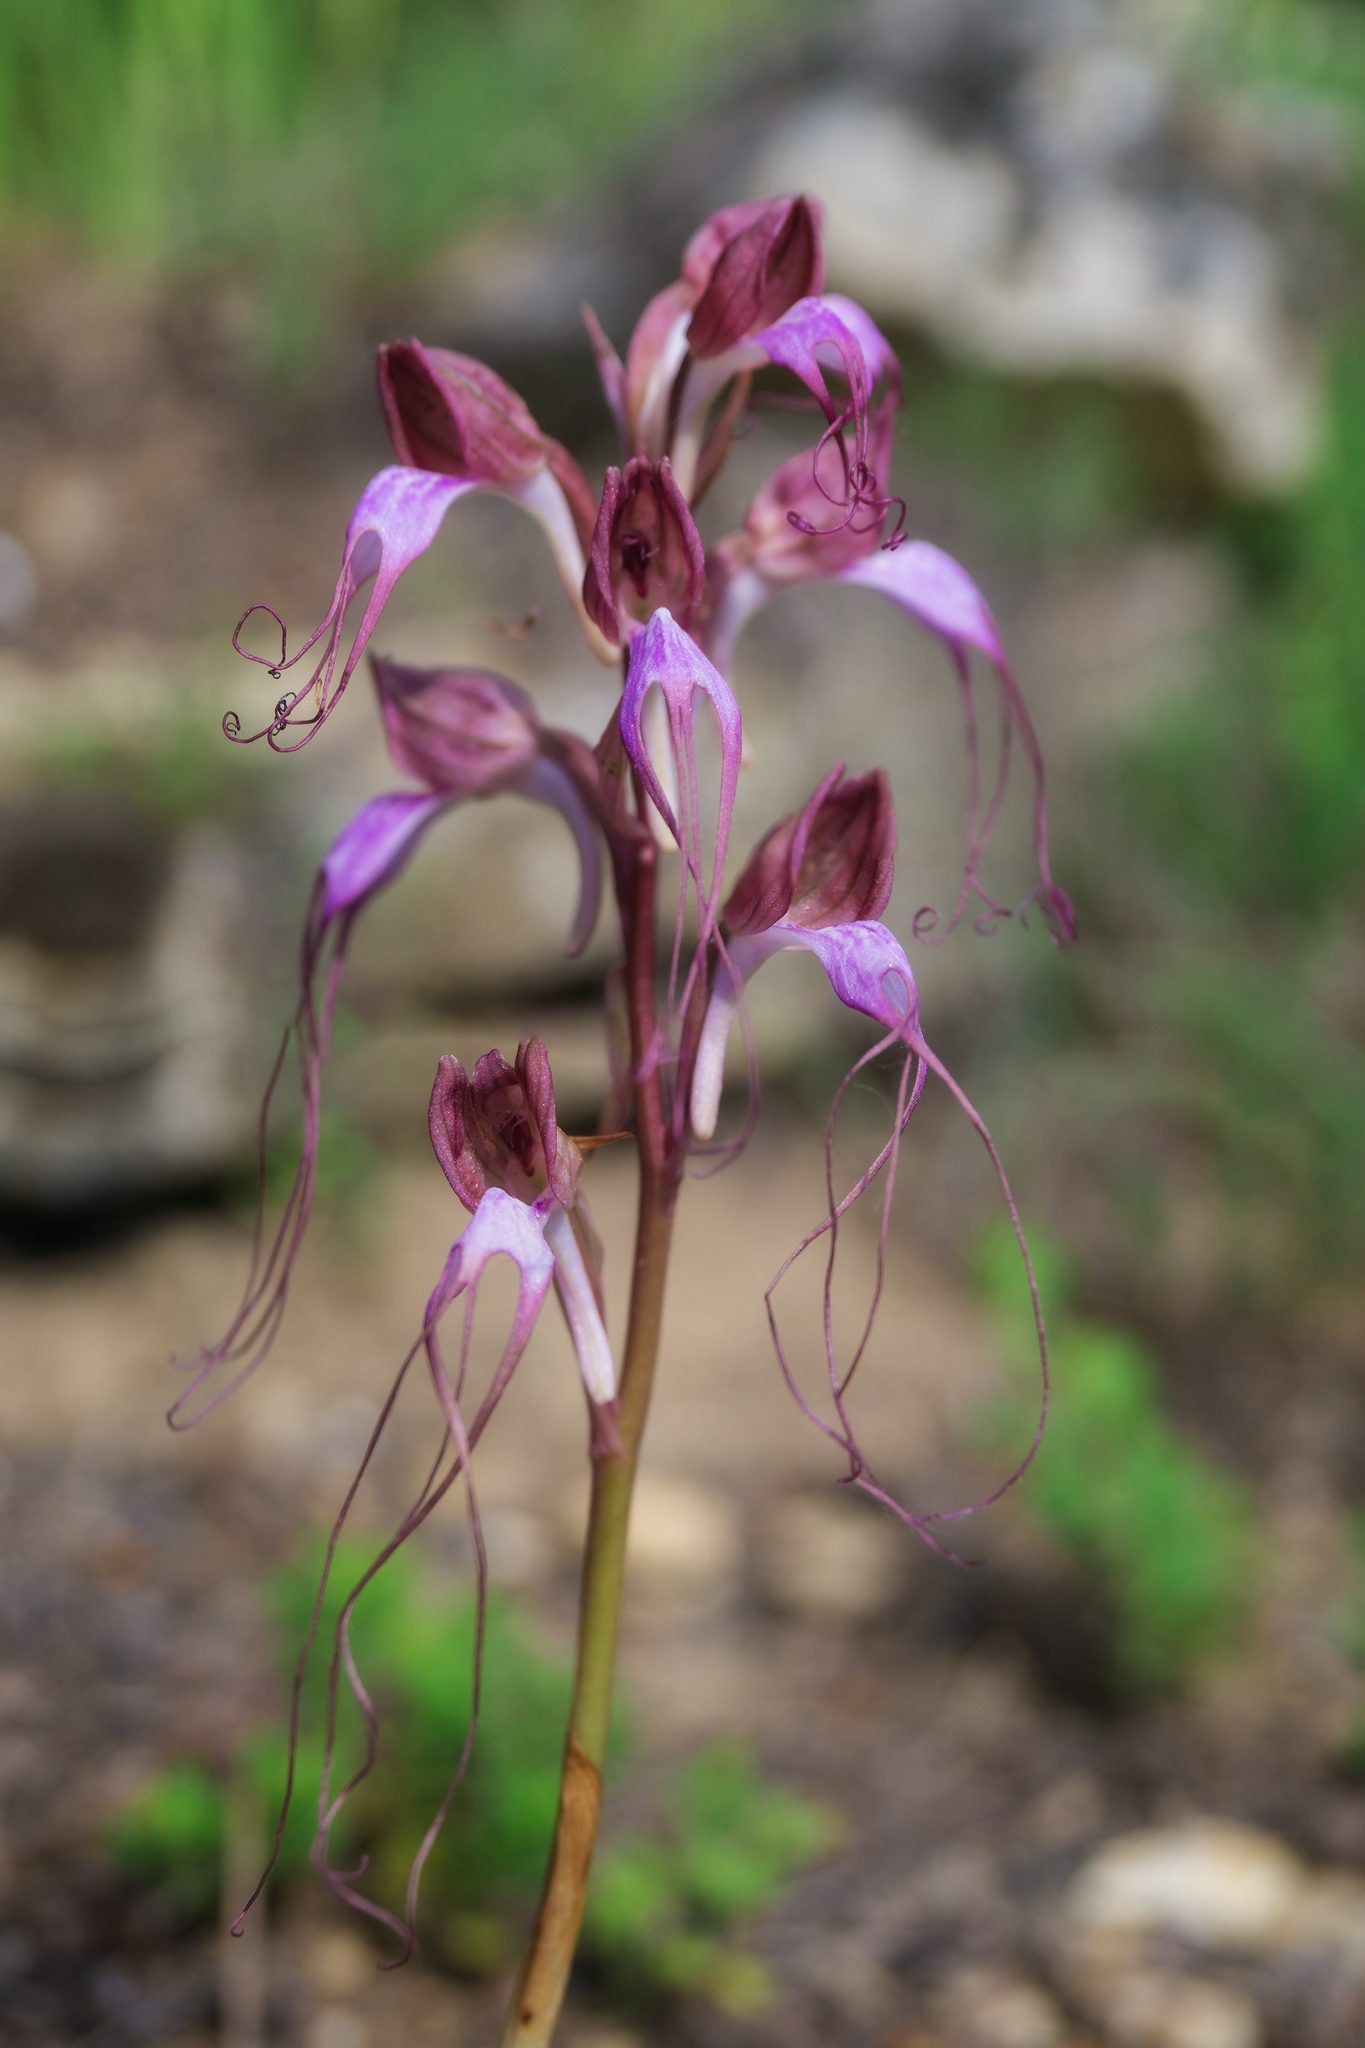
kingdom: Plantae
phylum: Tracheophyta
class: Liliopsida
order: Asparagales
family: Orchidaceae
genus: Himantoglossum
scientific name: Himantoglossum comperianum
